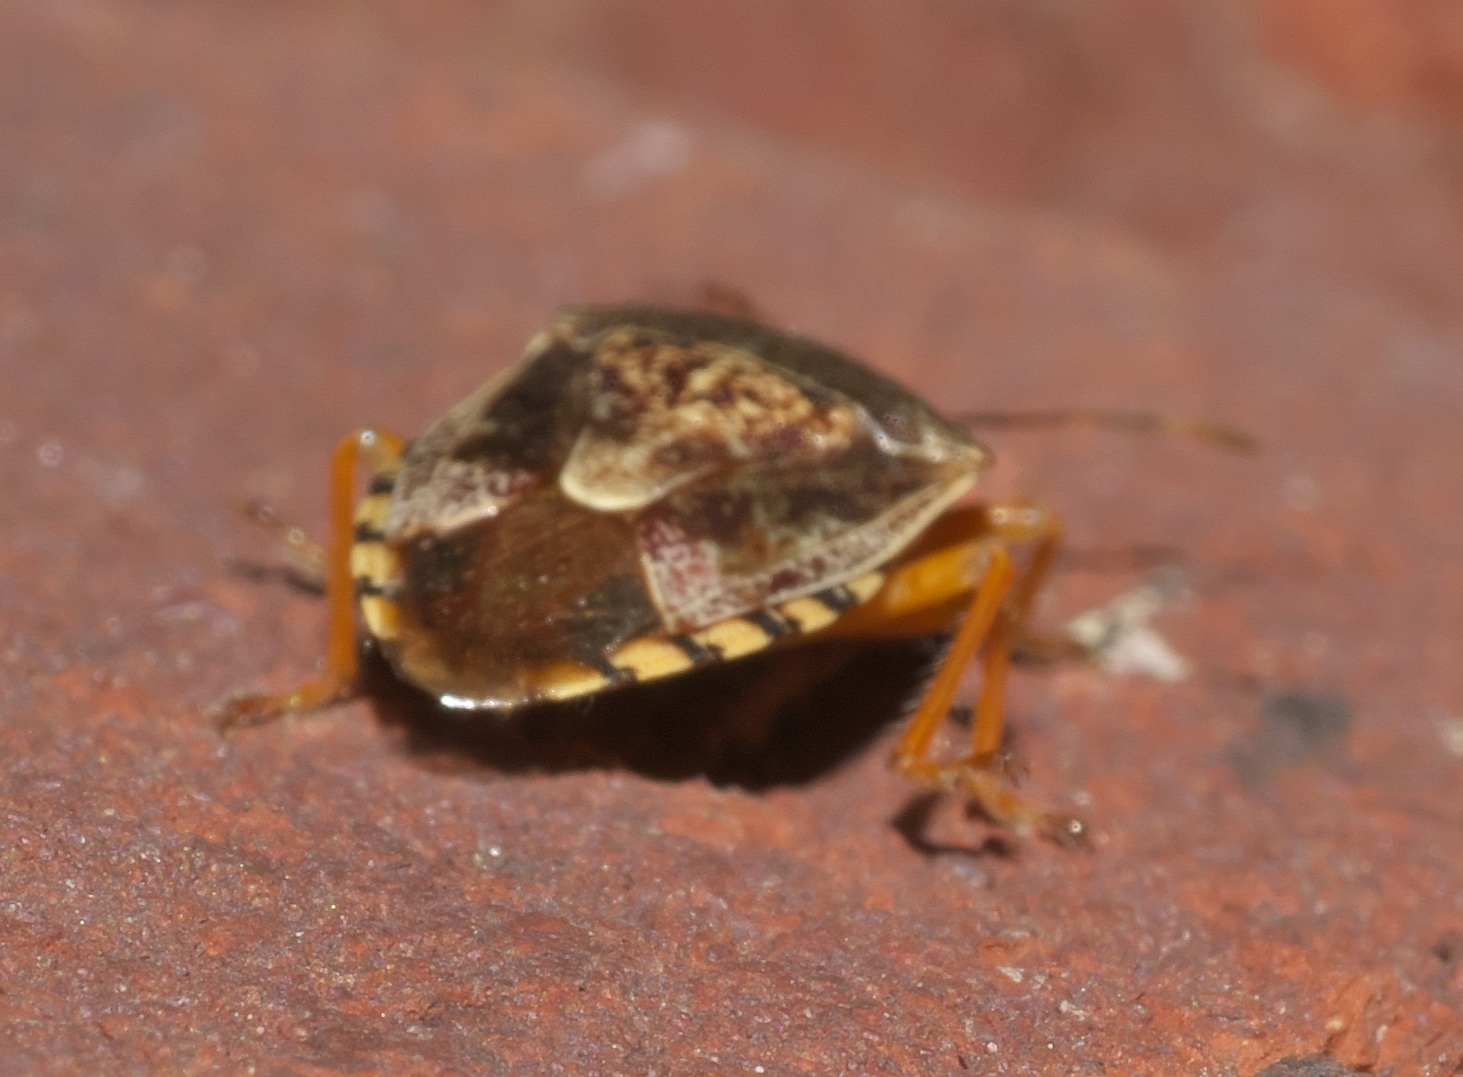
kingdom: Animalia
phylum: Arthropoda
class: Insecta
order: Hemiptera
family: Pentatomidae
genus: Podisus
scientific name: Podisus placidus
